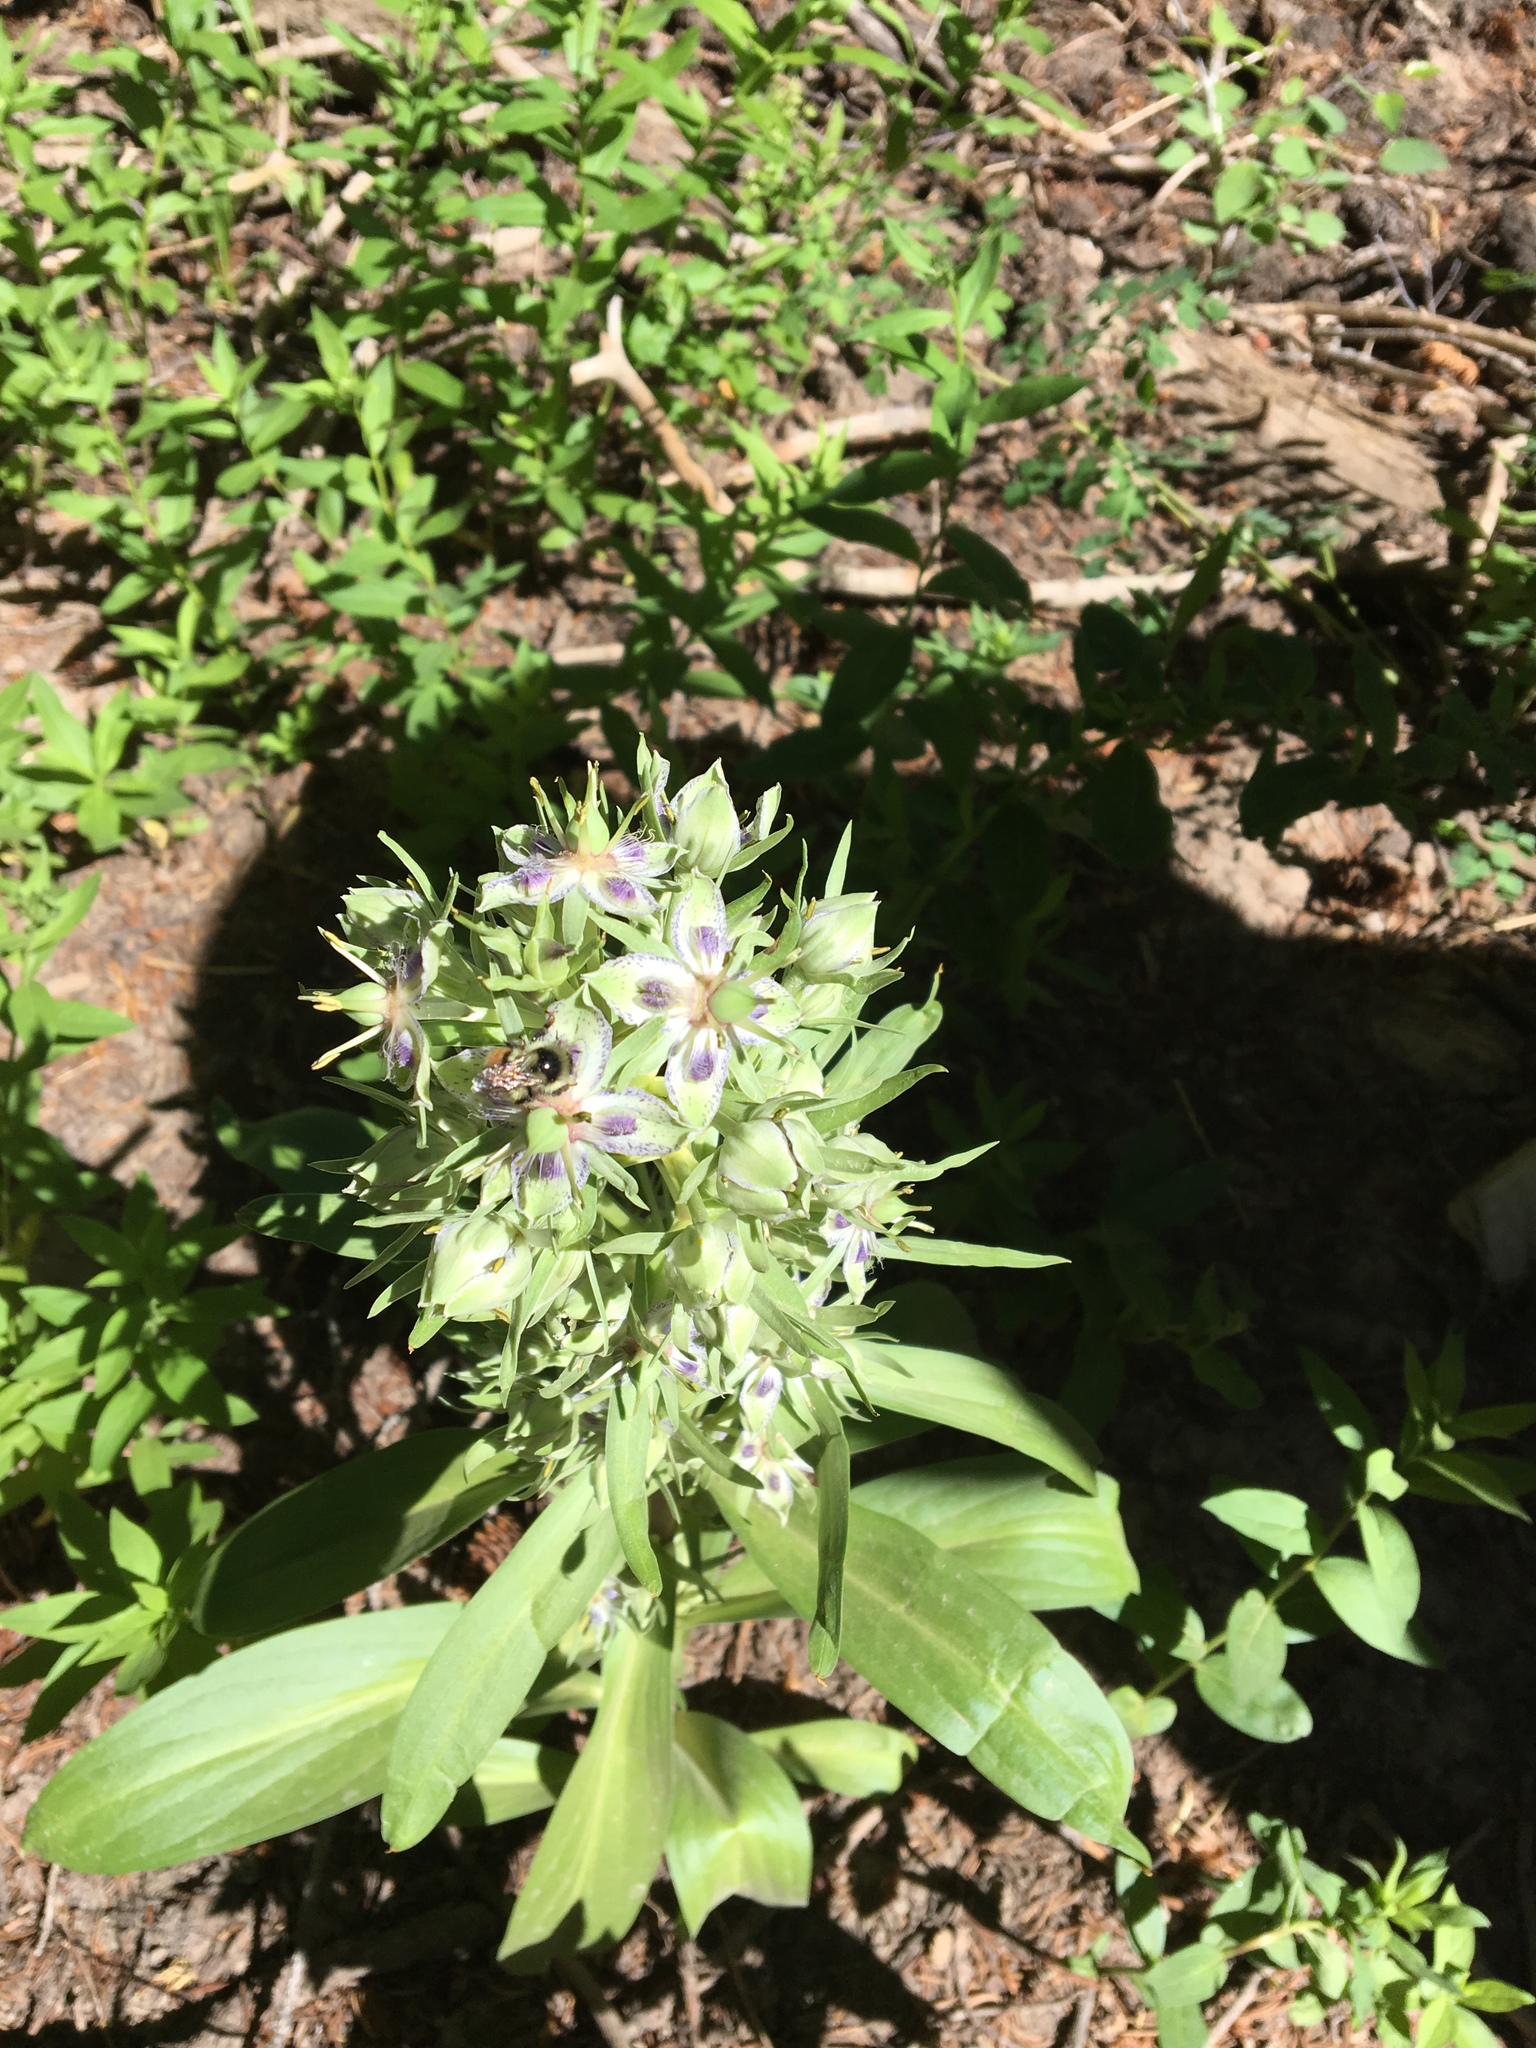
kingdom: Plantae
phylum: Tracheophyta
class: Magnoliopsida
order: Gentianales
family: Gentianaceae
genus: Frasera
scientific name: Frasera speciosa
